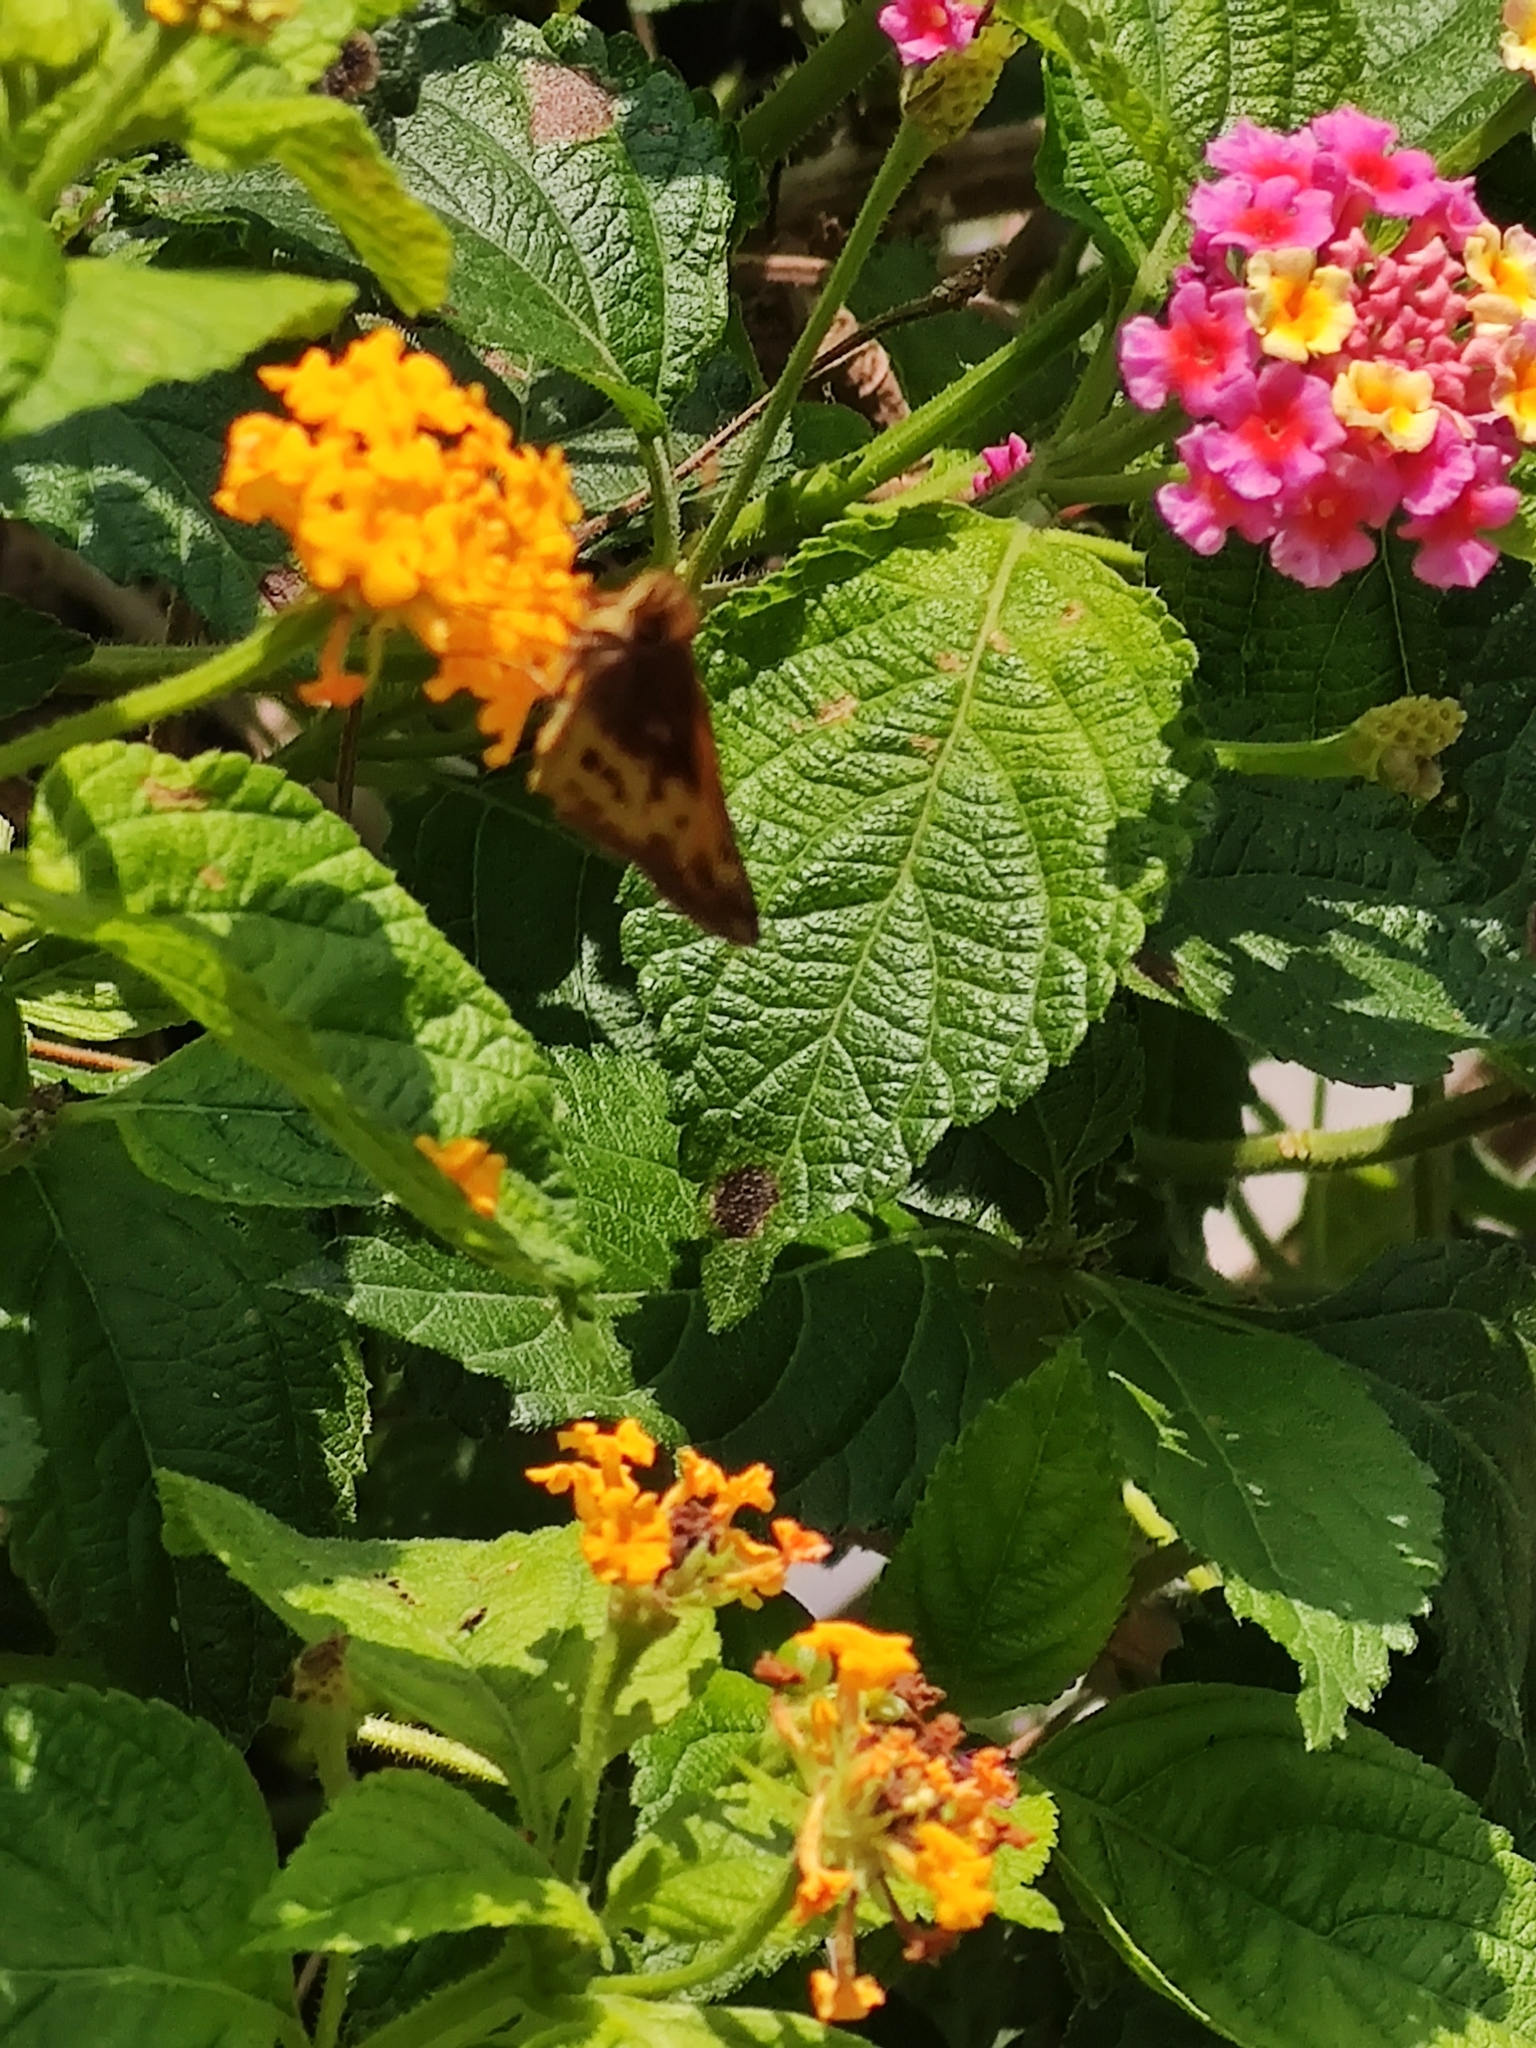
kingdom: Animalia
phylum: Arthropoda
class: Insecta
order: Lepidoptera
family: Hesperiidae
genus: Lon
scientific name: Lon zabulon
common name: Zabulon skipper
